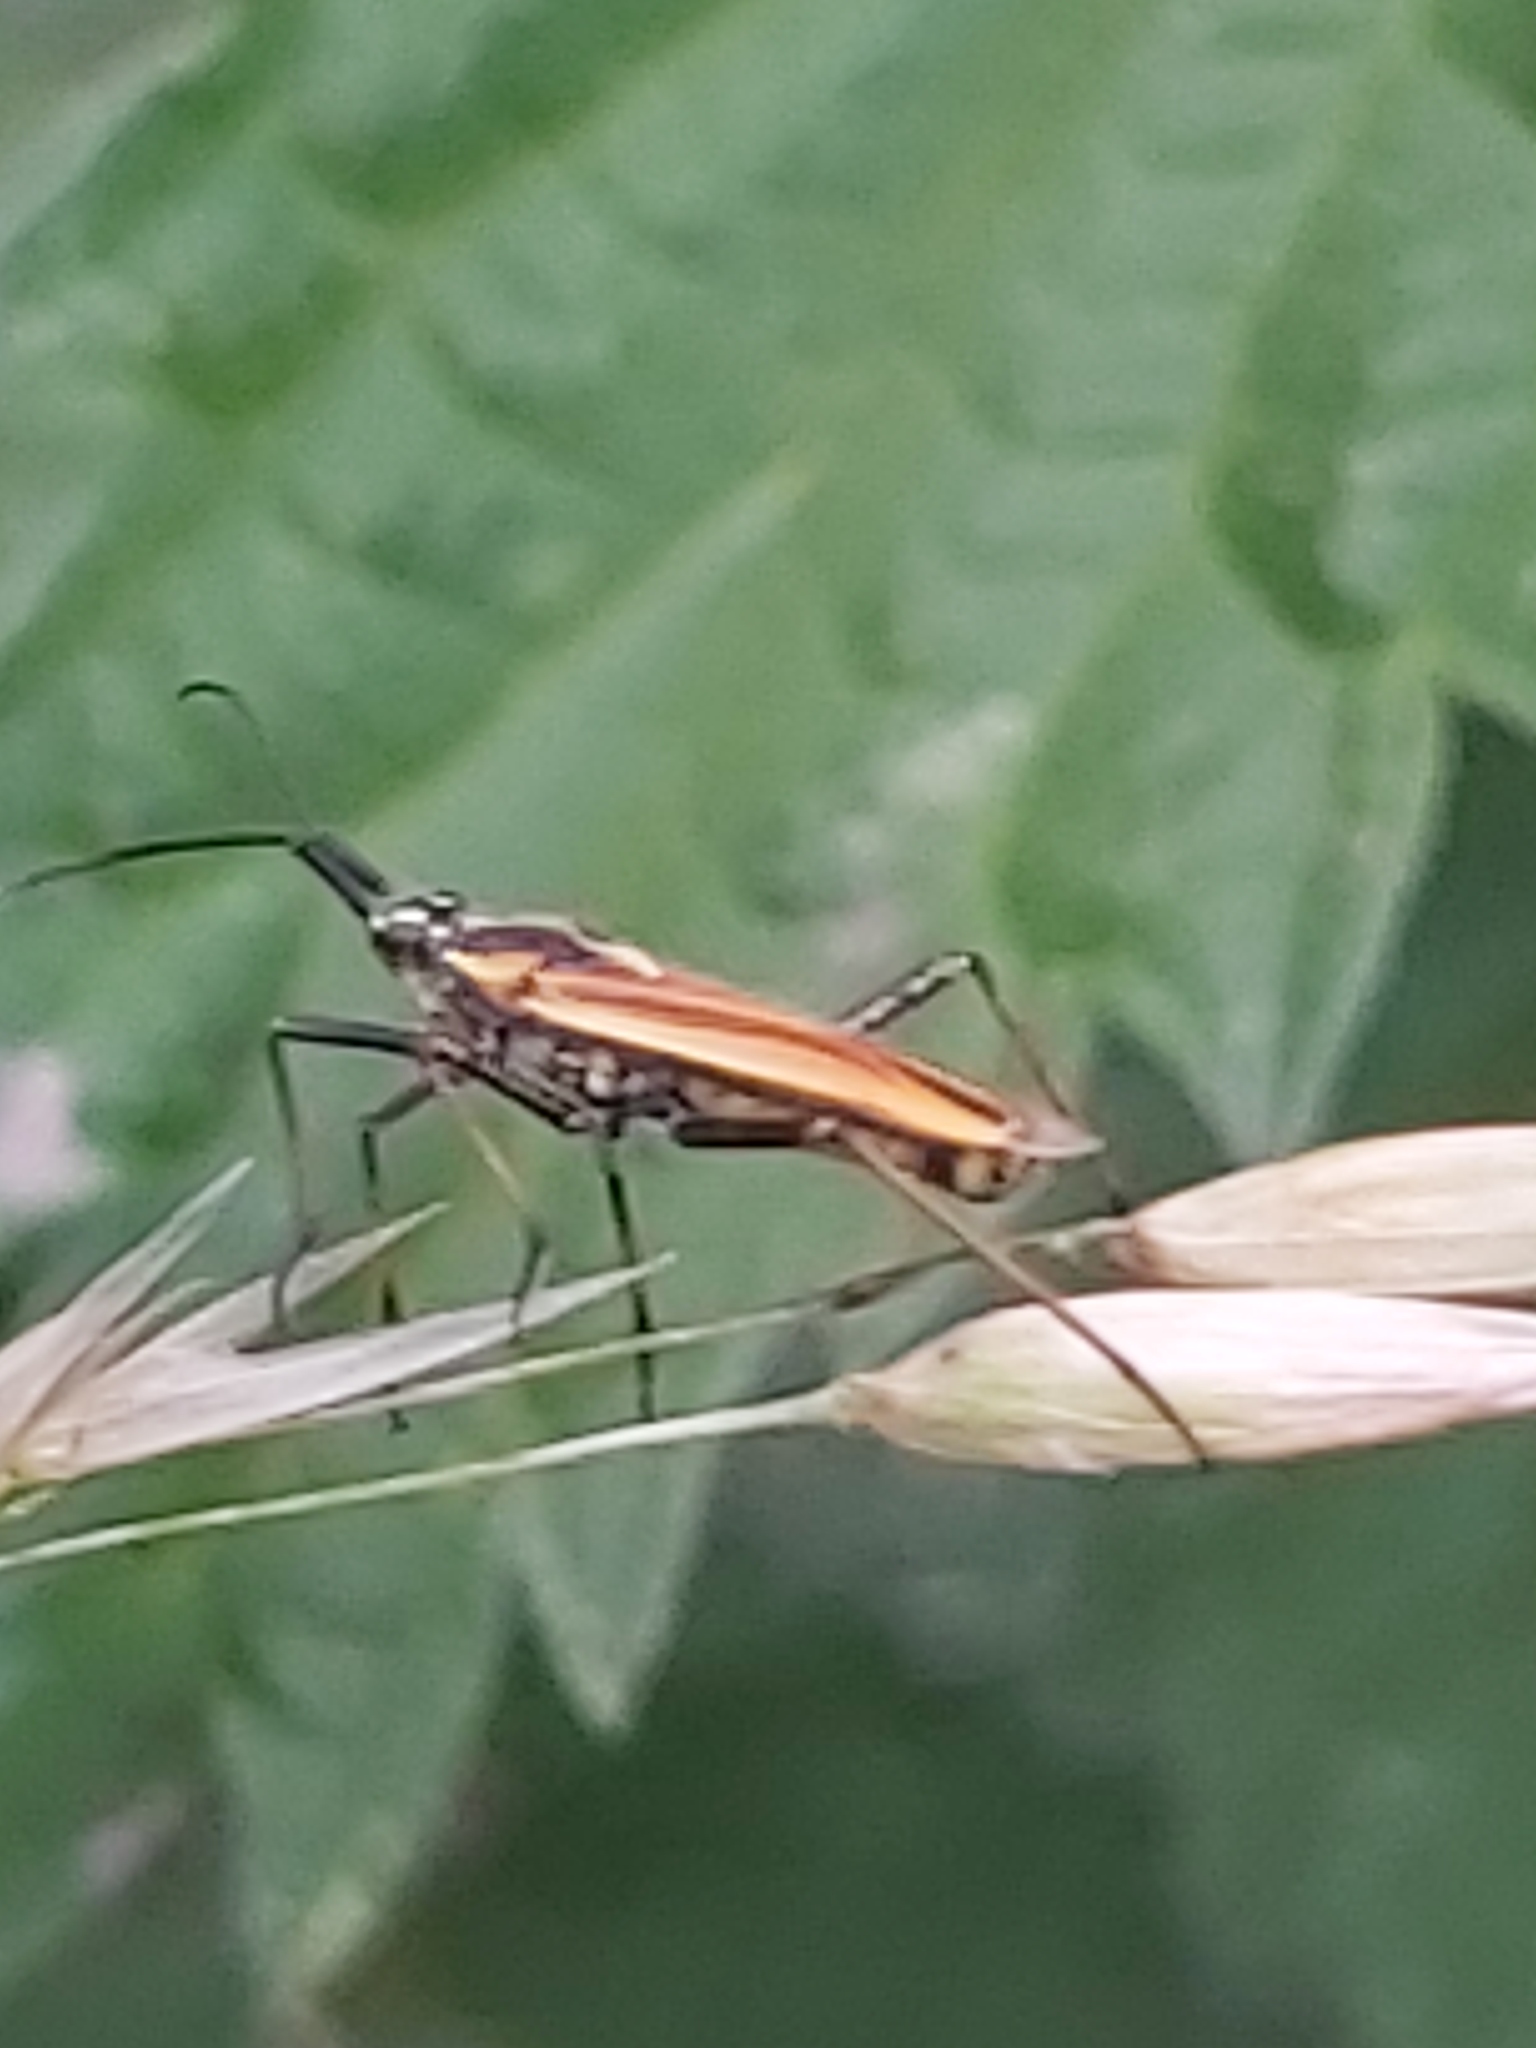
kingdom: Animalia
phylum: Arthropoda
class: Insecta
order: Hemiptera
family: Miridae
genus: Leptopterna
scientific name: Leptopterna dolabrata
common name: Meadow plant bug
